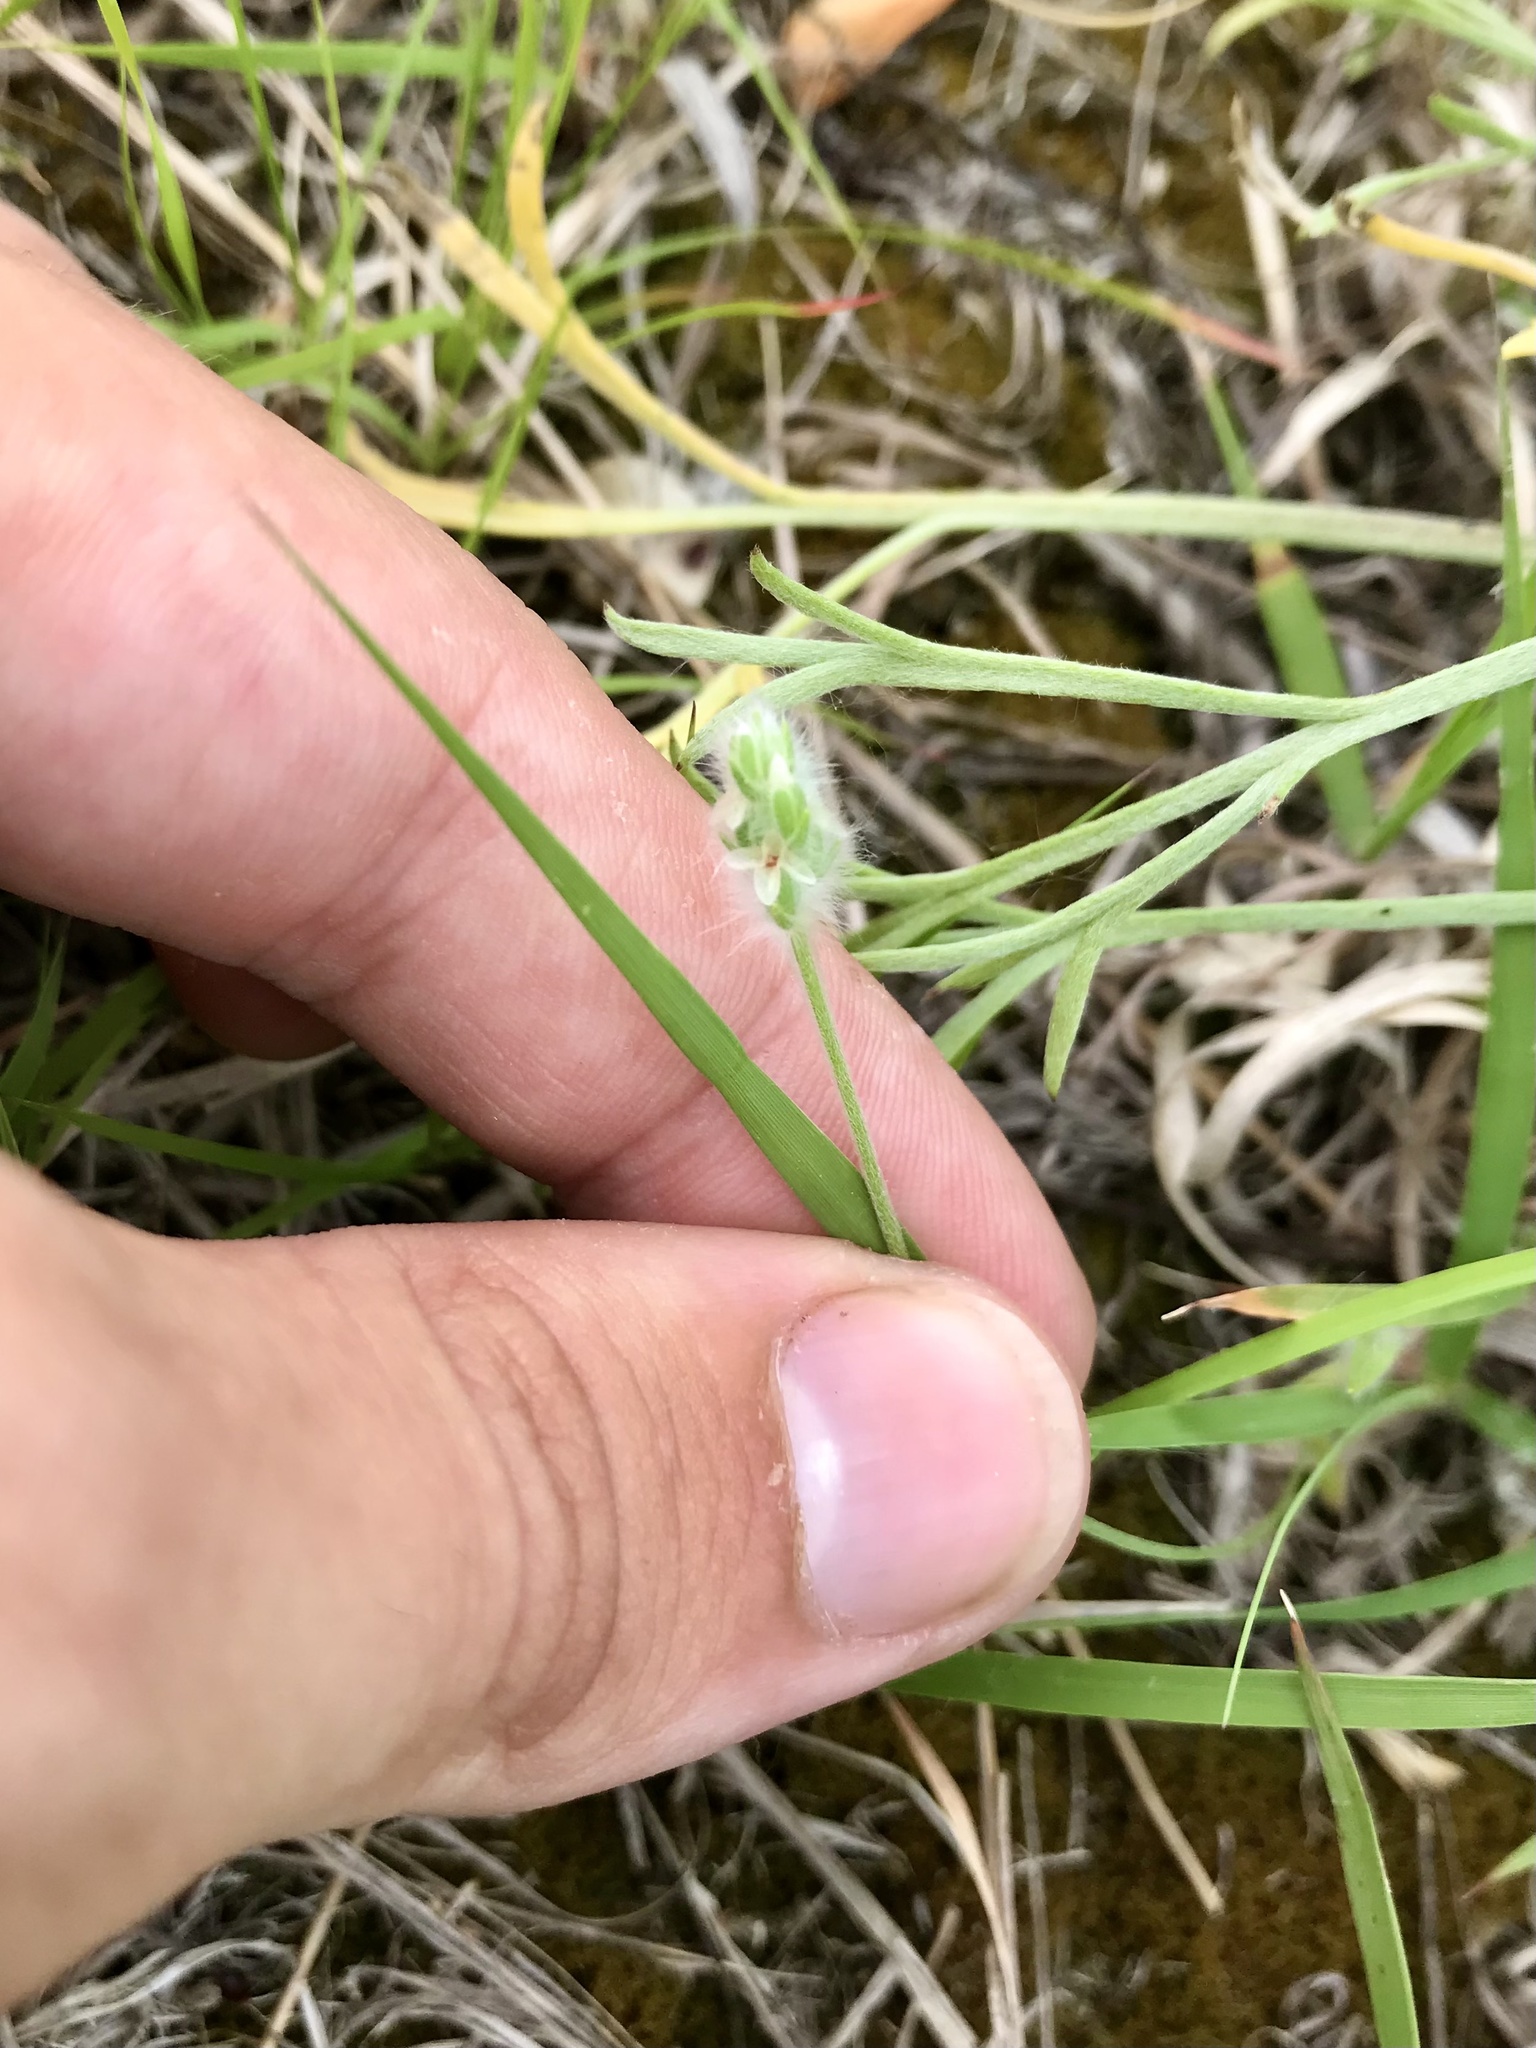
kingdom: Plantae
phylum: Tracheophyta
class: Magnoliopsida
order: Lamiales
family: Plantaginaceae
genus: Plantago
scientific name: Plantago patagonica
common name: Patagonia indian-wheat
